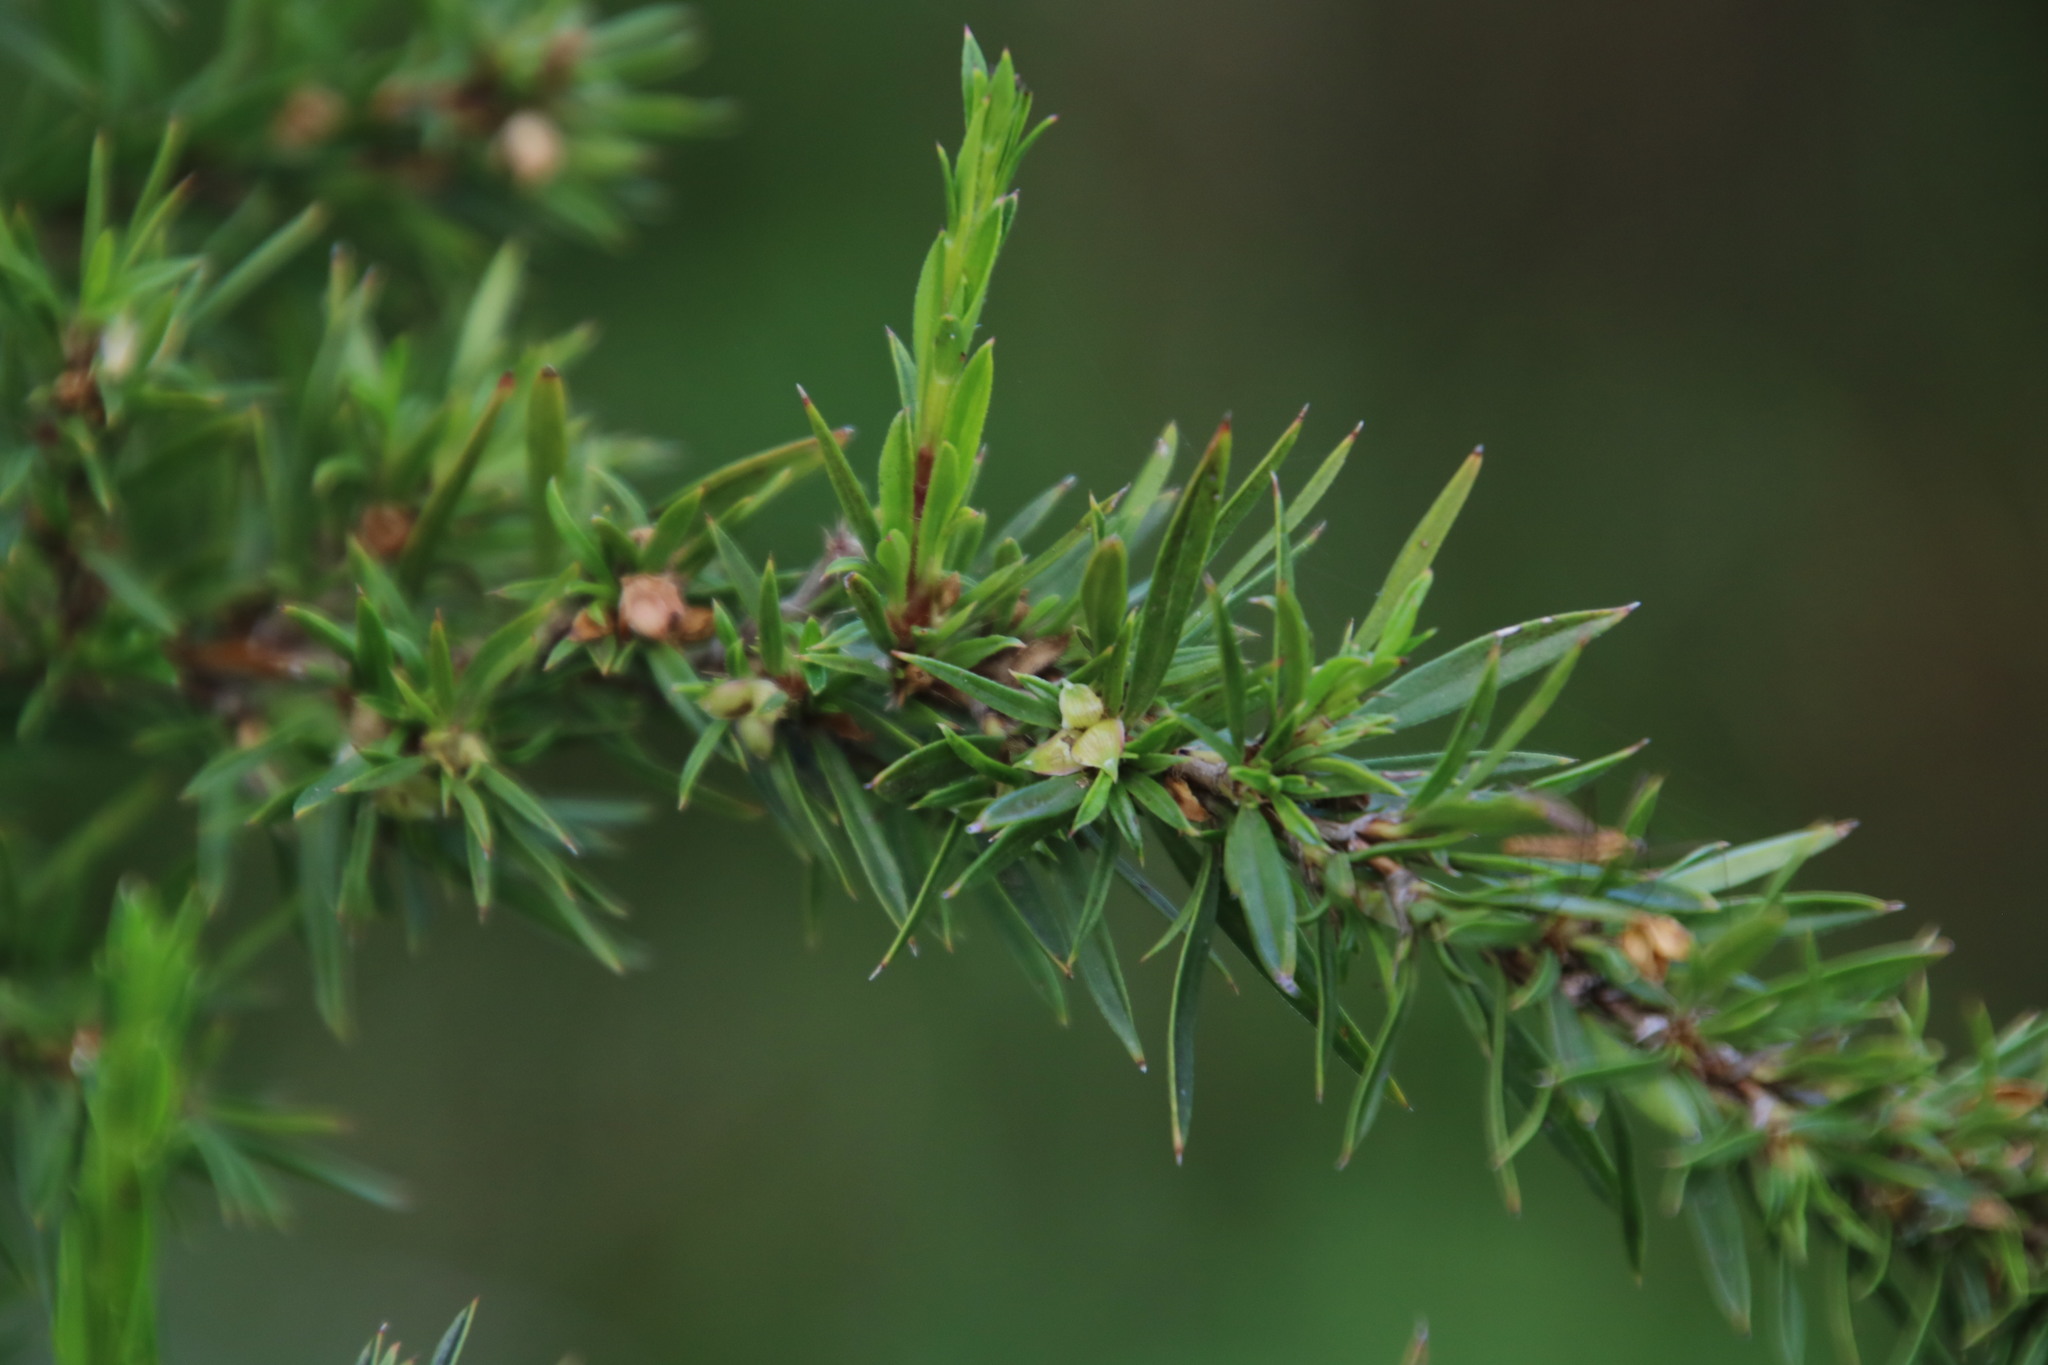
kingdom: Plantae
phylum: Tracheophyta
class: Magnoliopsida
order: Rosales
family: Rosaceae
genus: Cliffortia
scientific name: Cliffortia strobilifera
